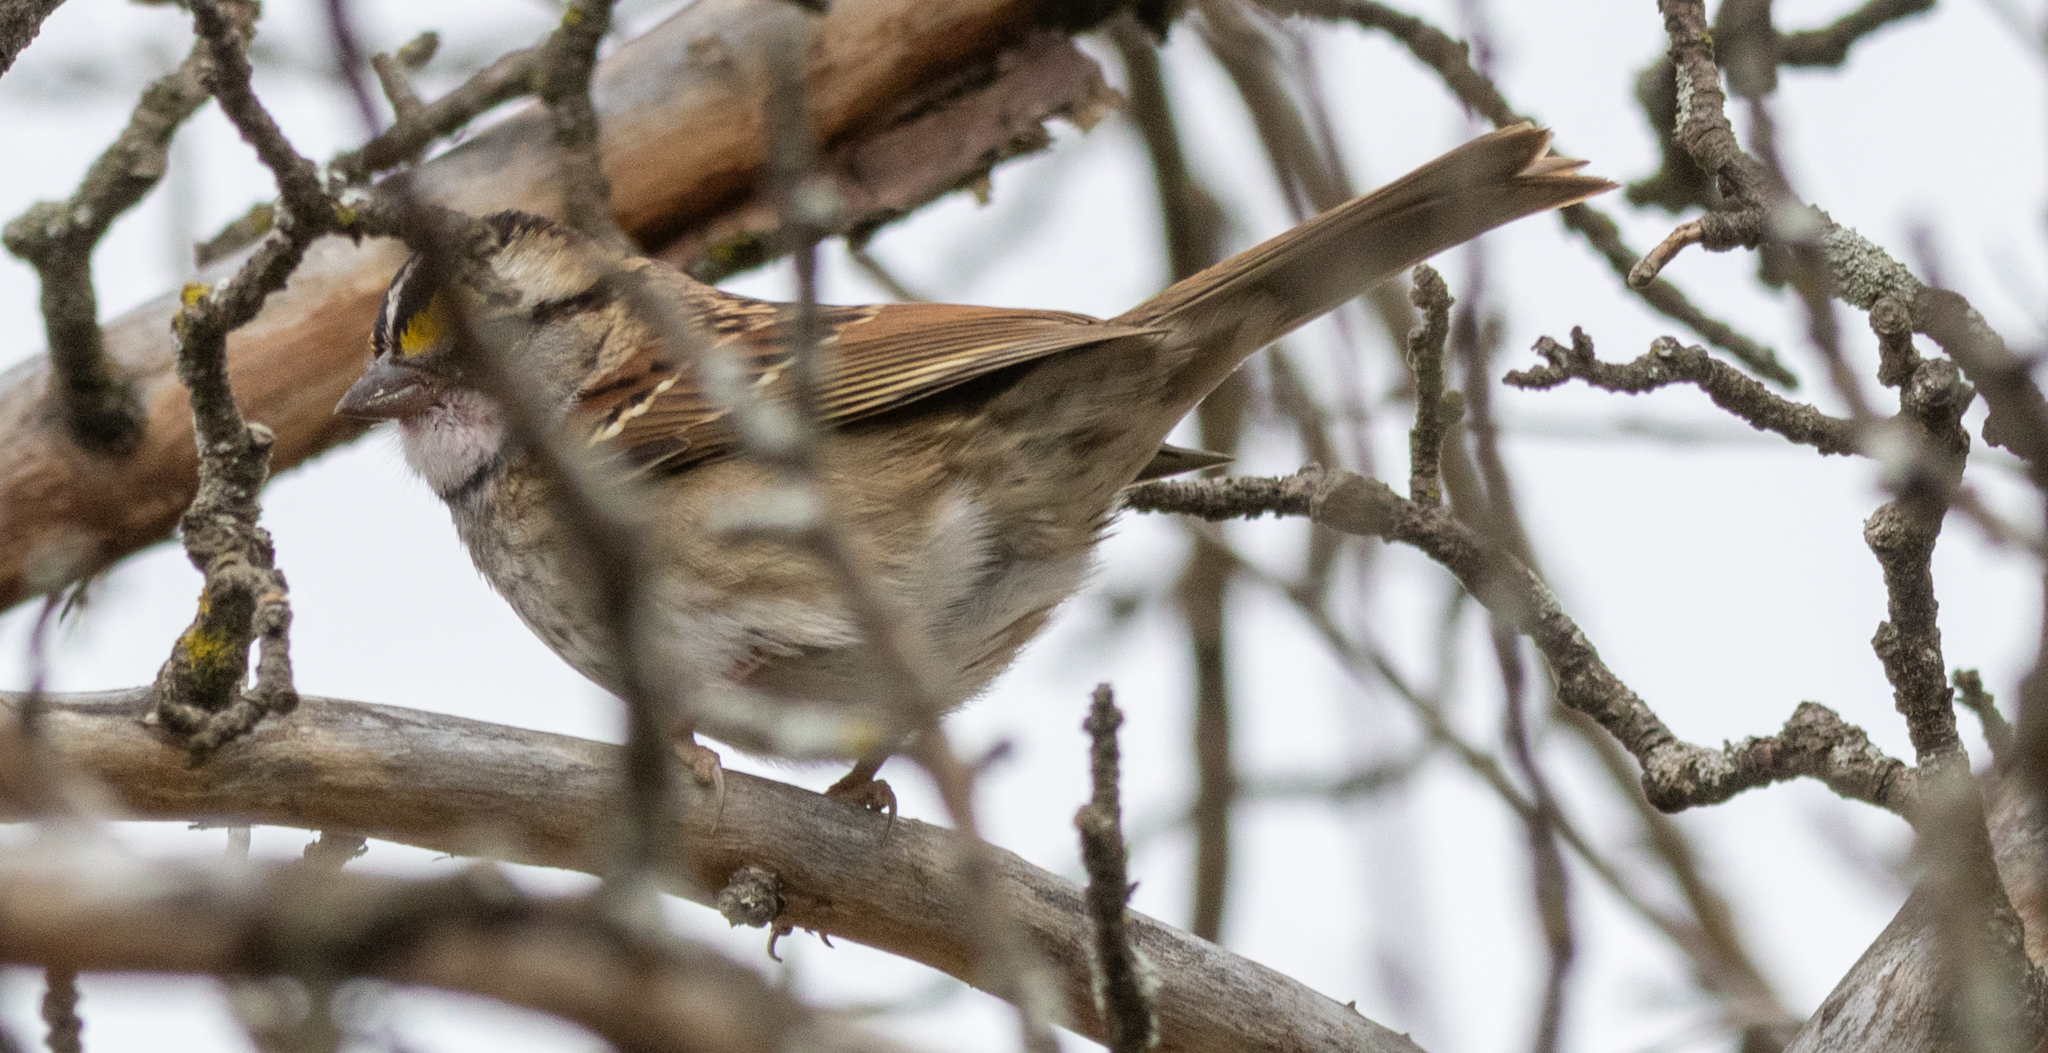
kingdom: Animalia
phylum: Chordata
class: Aves
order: Passeriformes
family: Passerellidae
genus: Zonotrichia
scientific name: Zonotrichia albicollis
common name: White-throated sparrow
